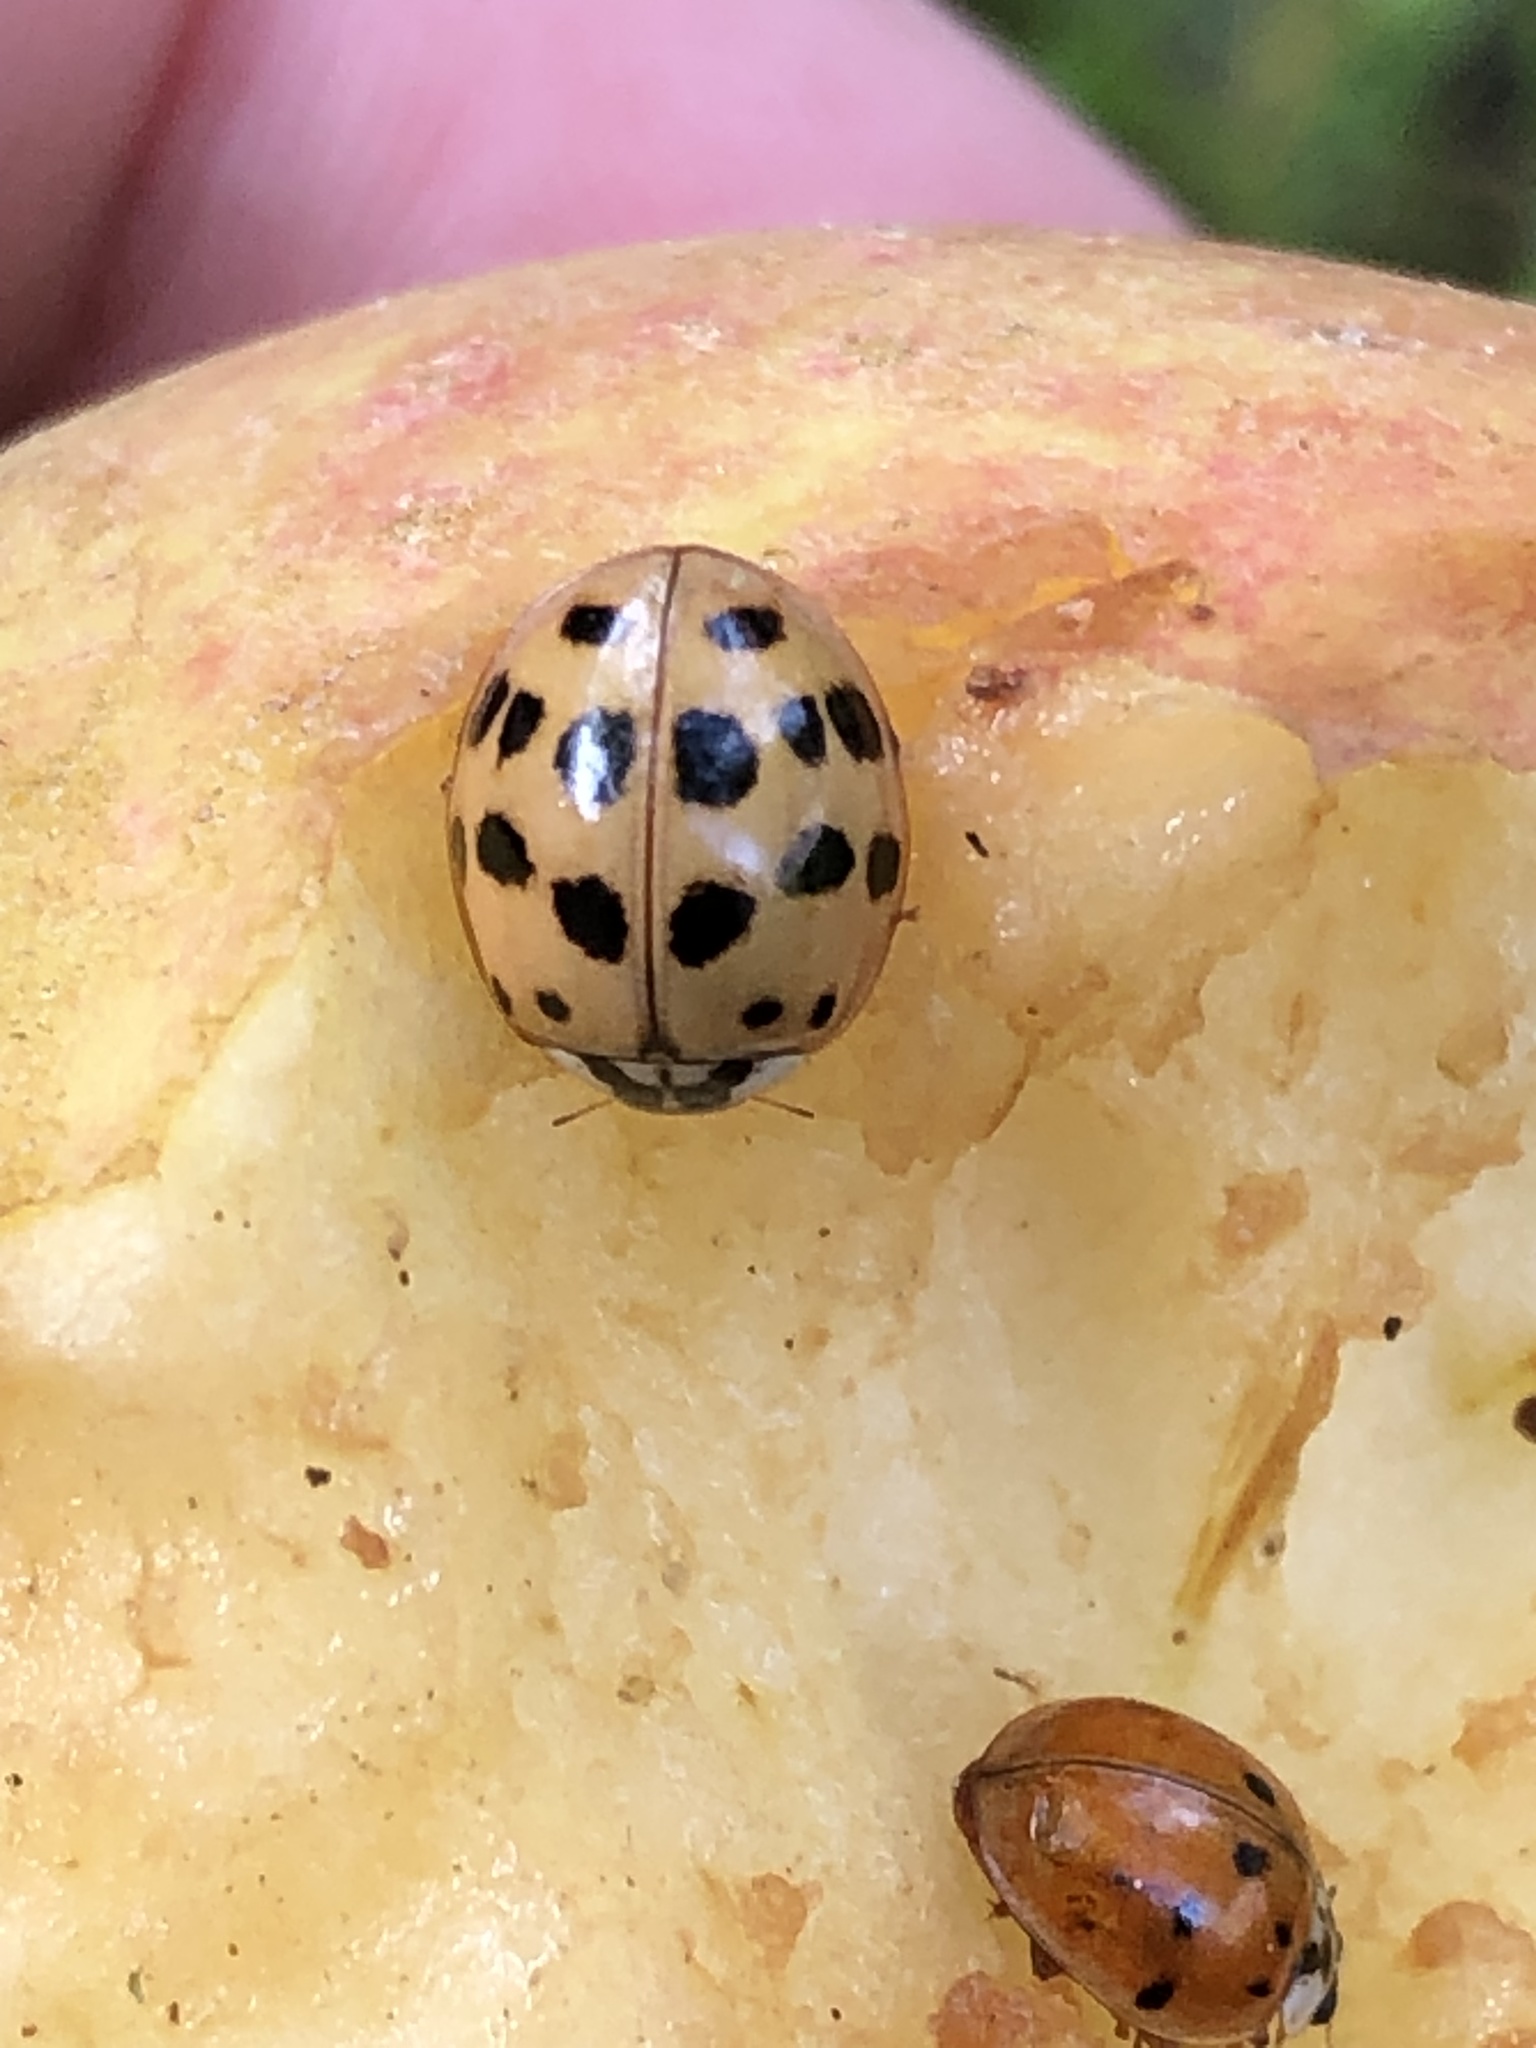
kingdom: Animalia
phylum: Arthropoda
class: Insecta
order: Coleoptera
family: Coccinellidae
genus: Harmonia
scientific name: Harmonia axyridis
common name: Harlequin ladybird
